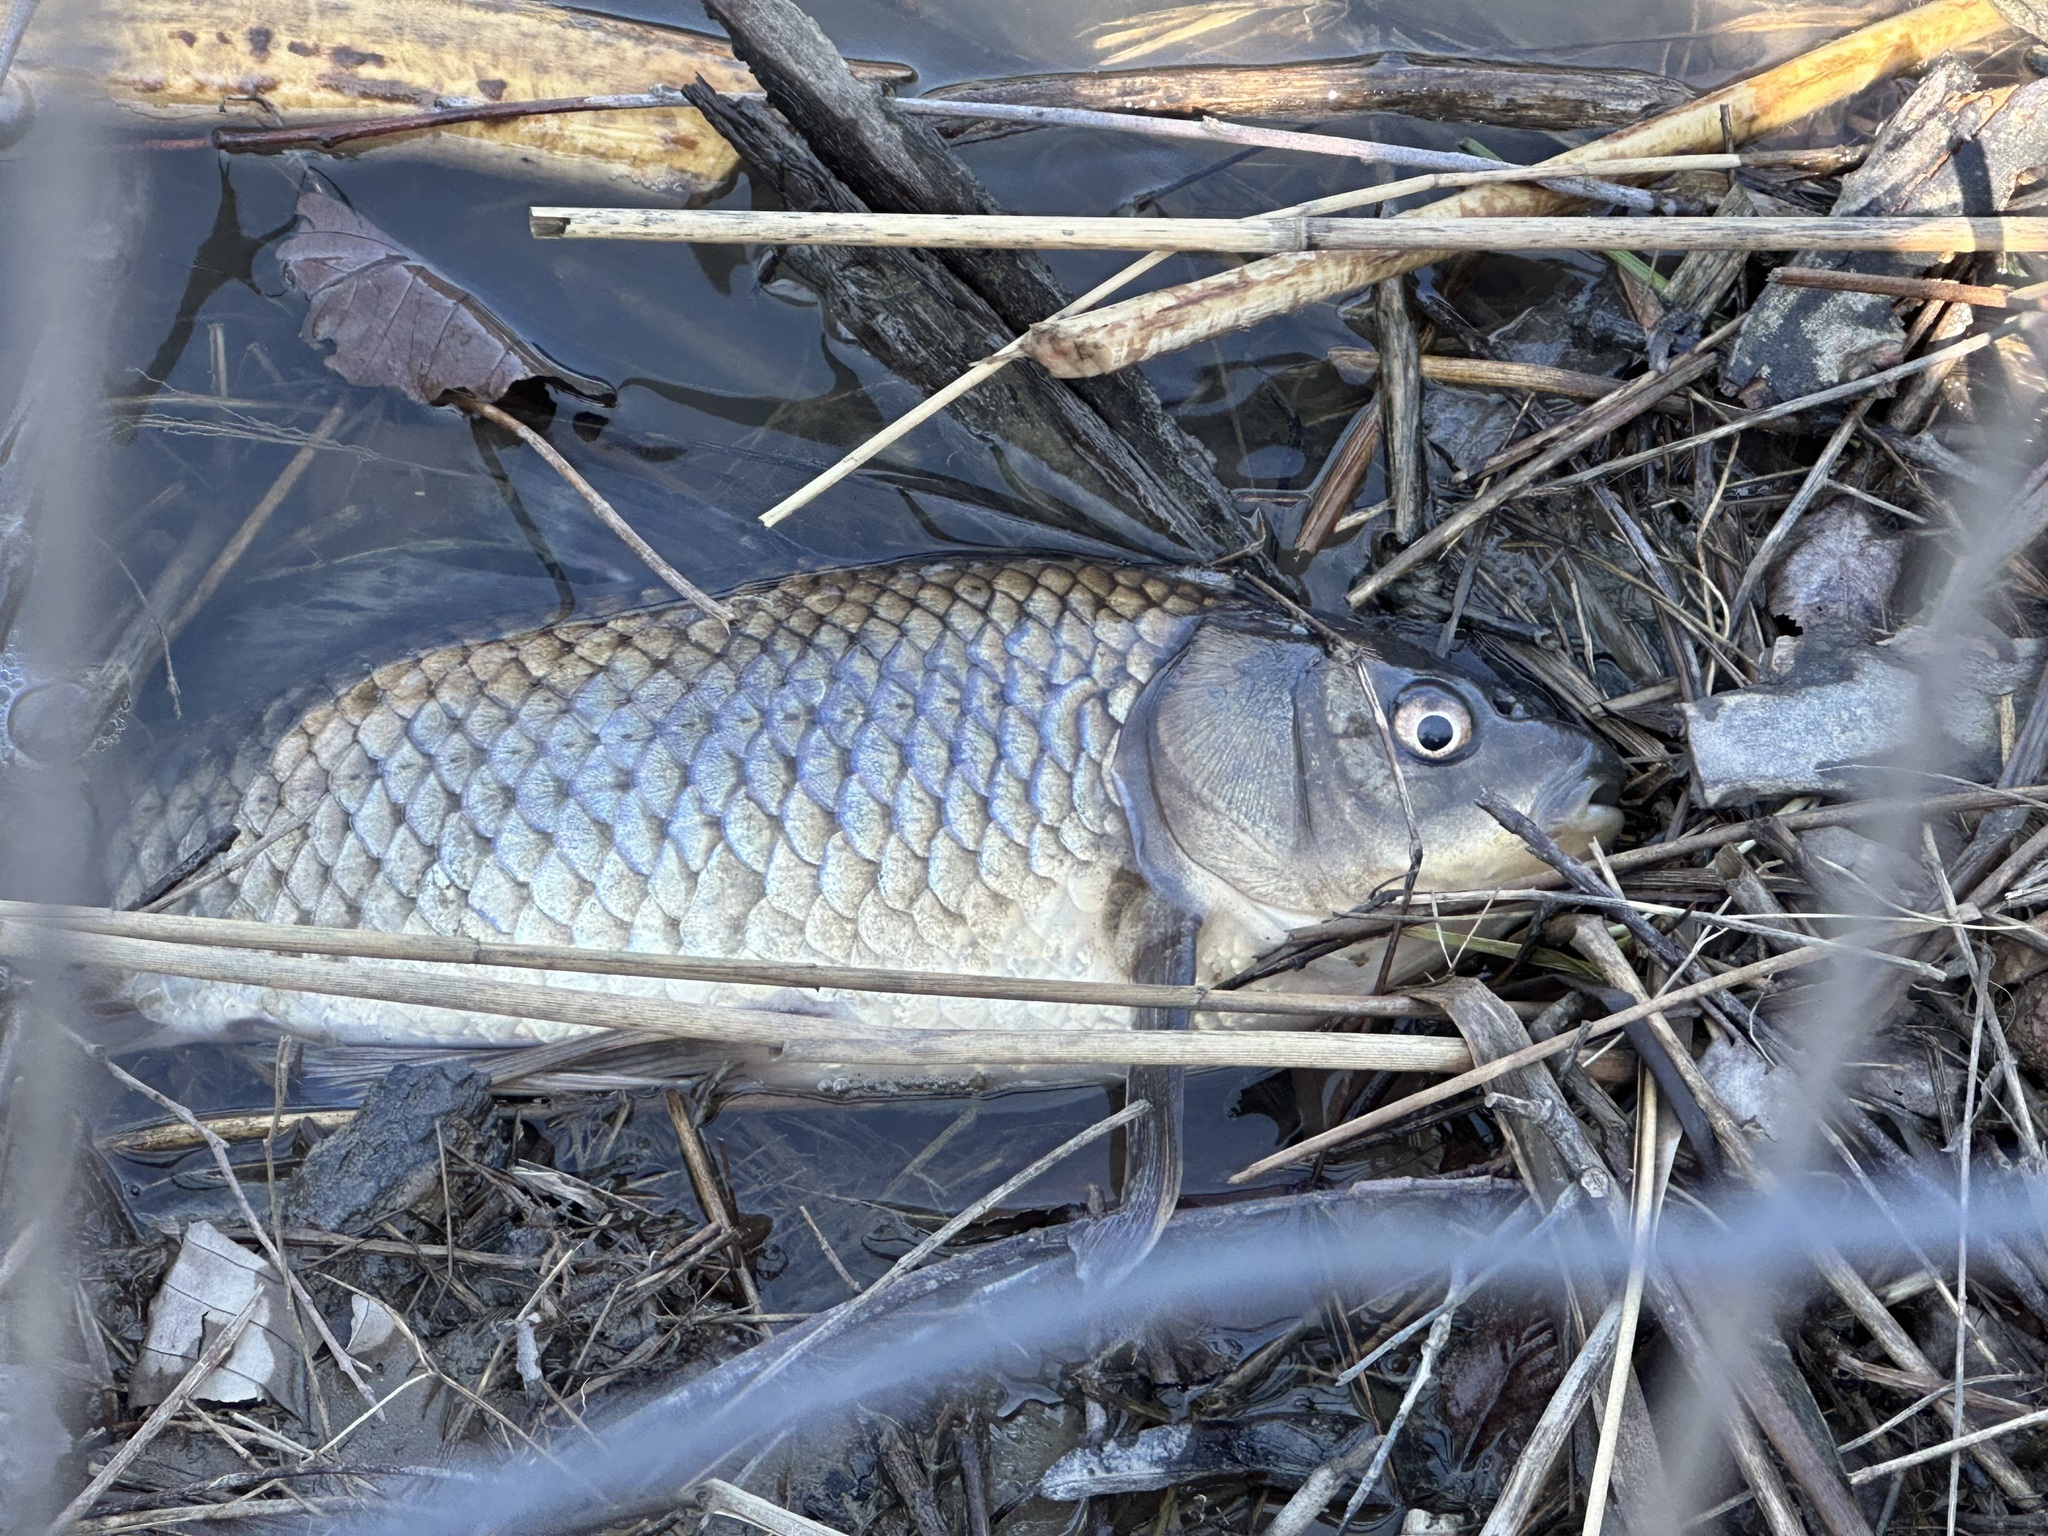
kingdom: Animalia
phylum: Chordata
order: Cypriniformes
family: Cyprinidae
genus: Cyprinus
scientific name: Cyprinus carpio
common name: Common carp
